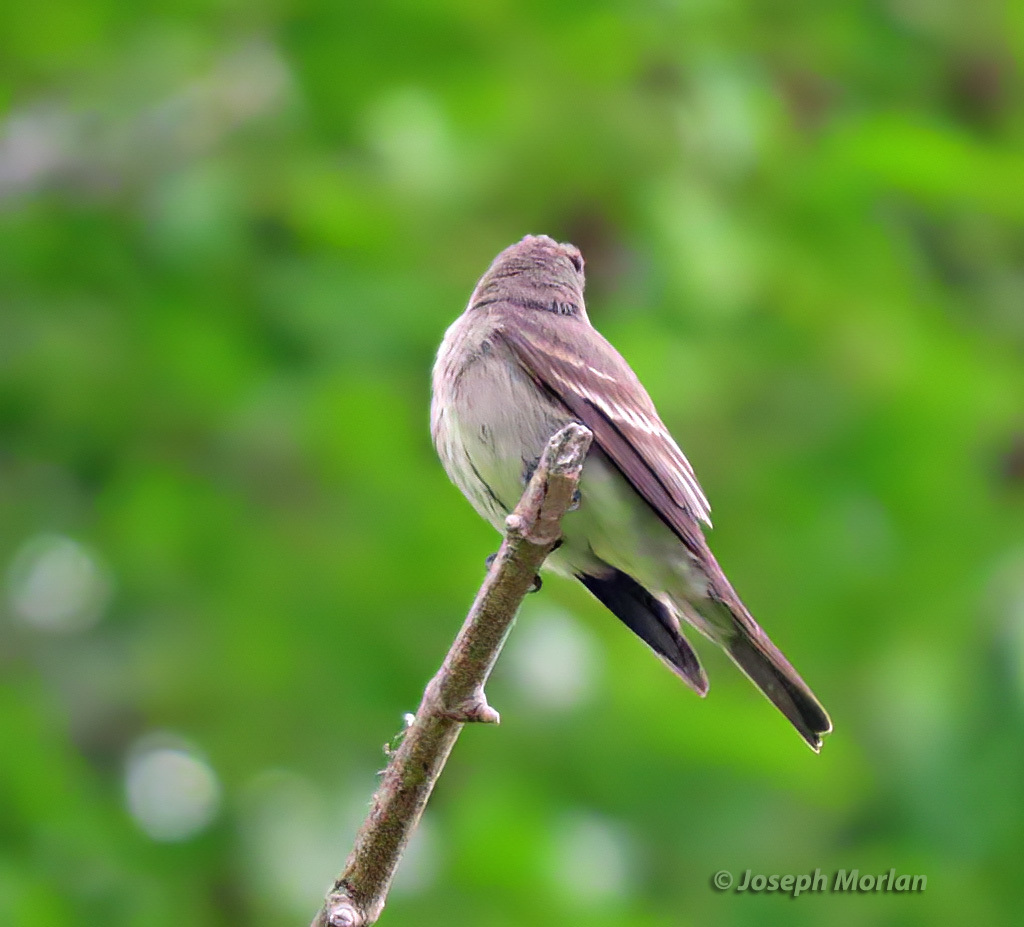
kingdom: Animalia
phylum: Chordata
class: Aves
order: Passeriformes
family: Tyrannidae
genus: Contopus
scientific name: Contopus sordidulus
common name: Western wood-pewee
